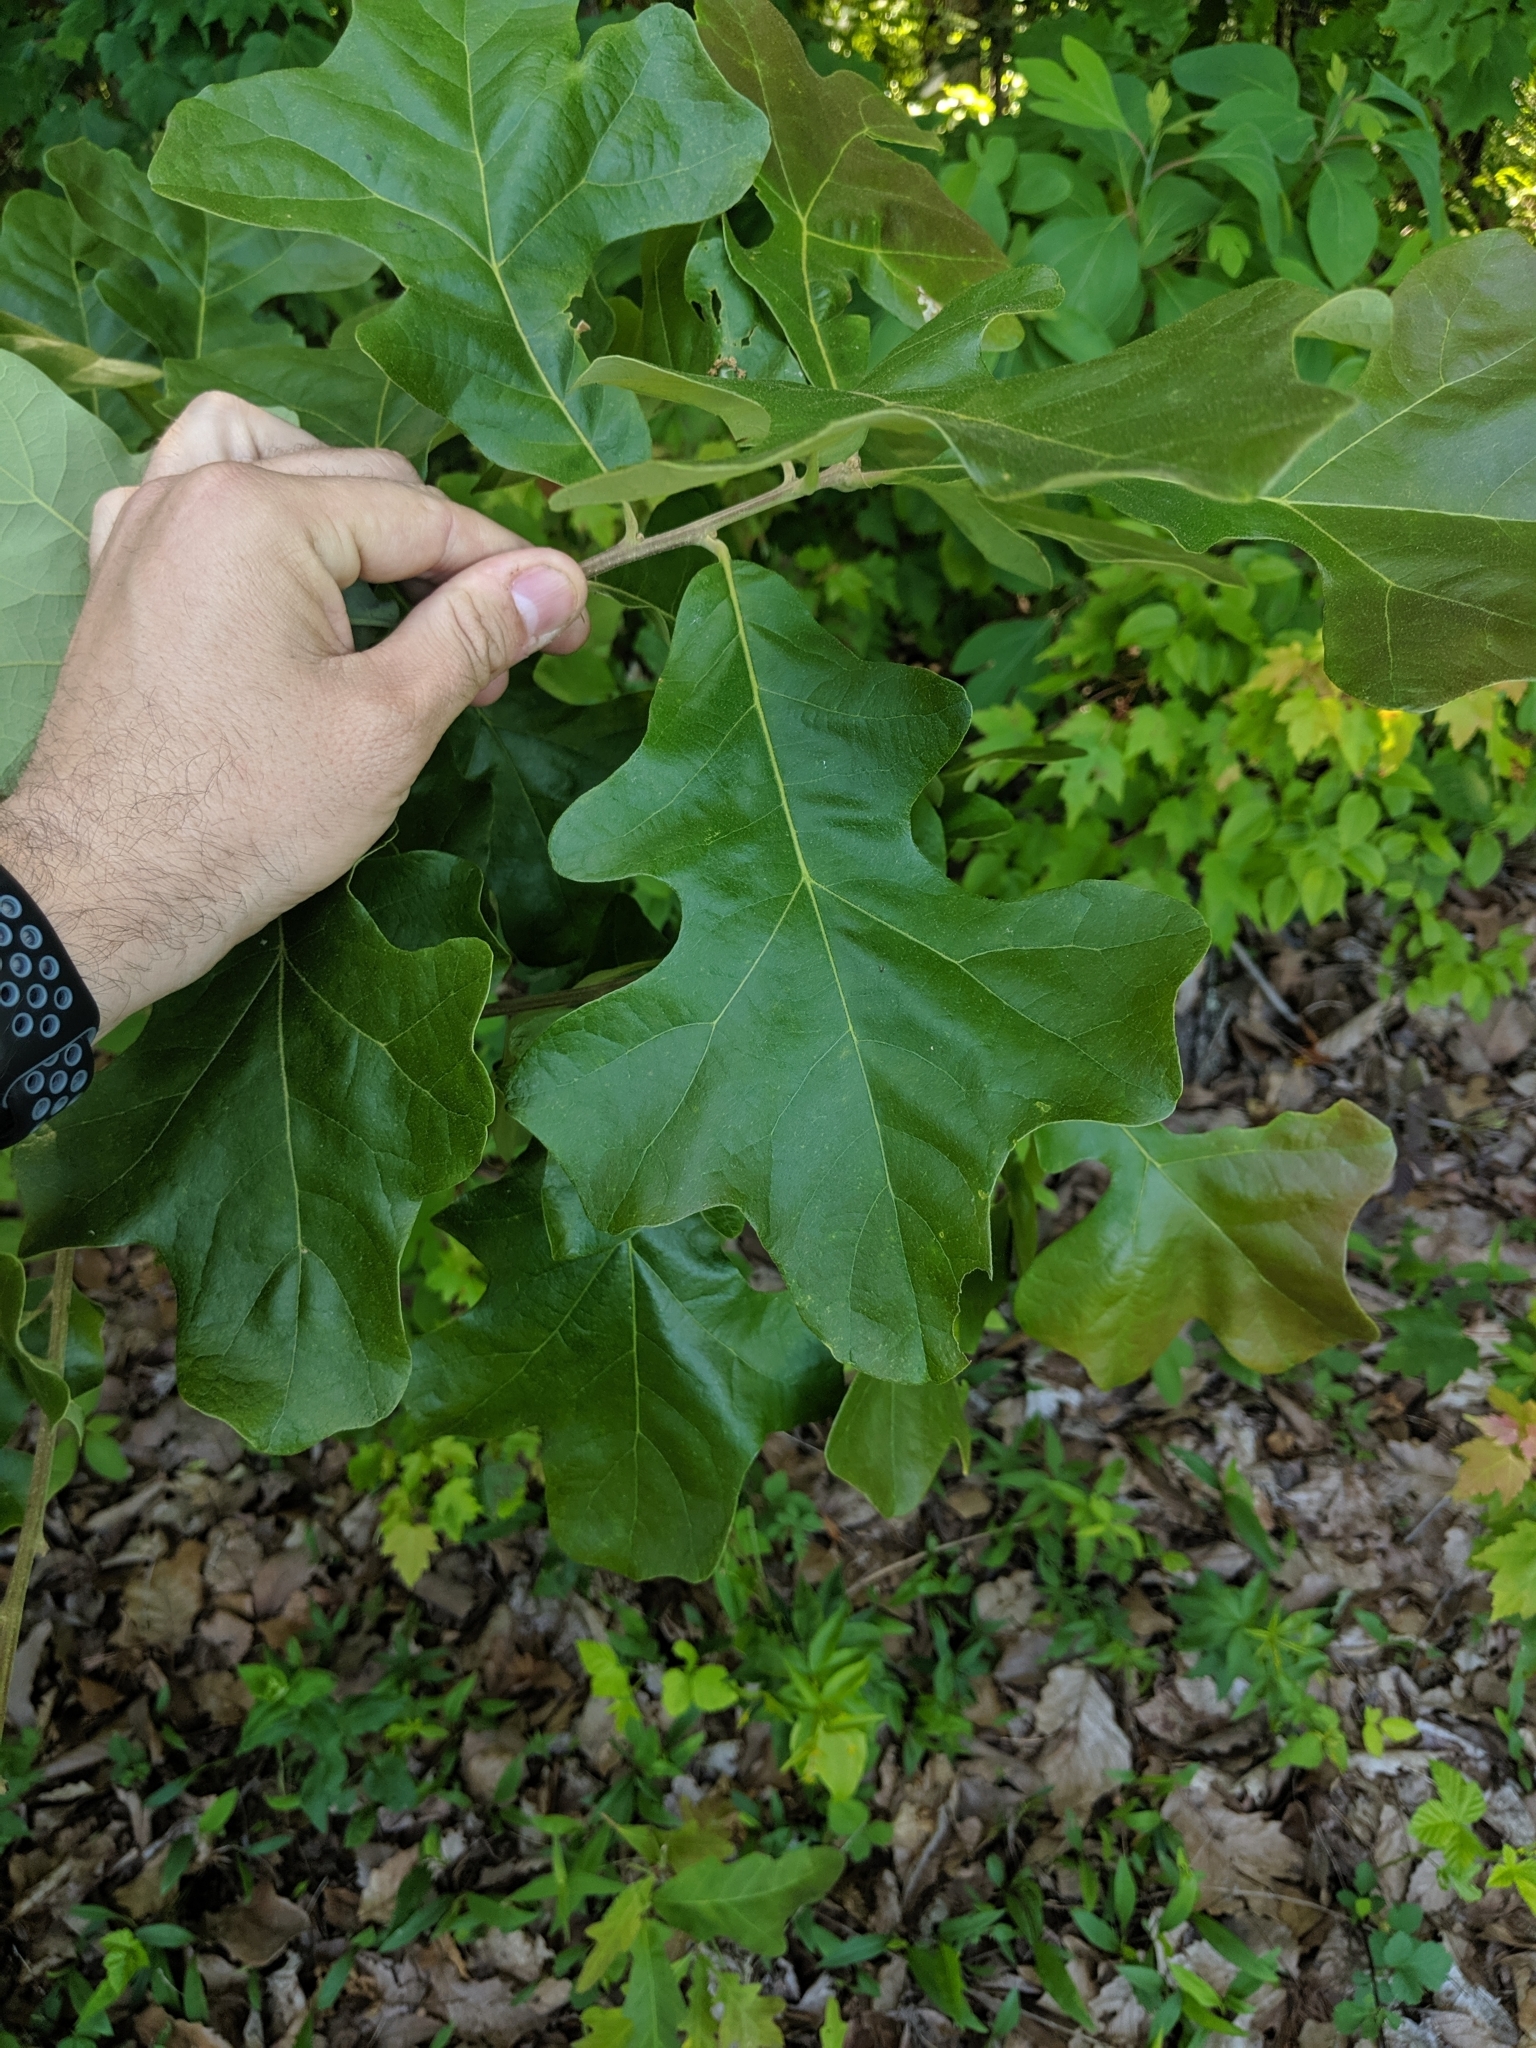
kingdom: Plantae
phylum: Tracheophyta
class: Magnoliopsida
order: Fagales
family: Fagaceae
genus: Quercus
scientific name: Quercus stellata
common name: Post oak
